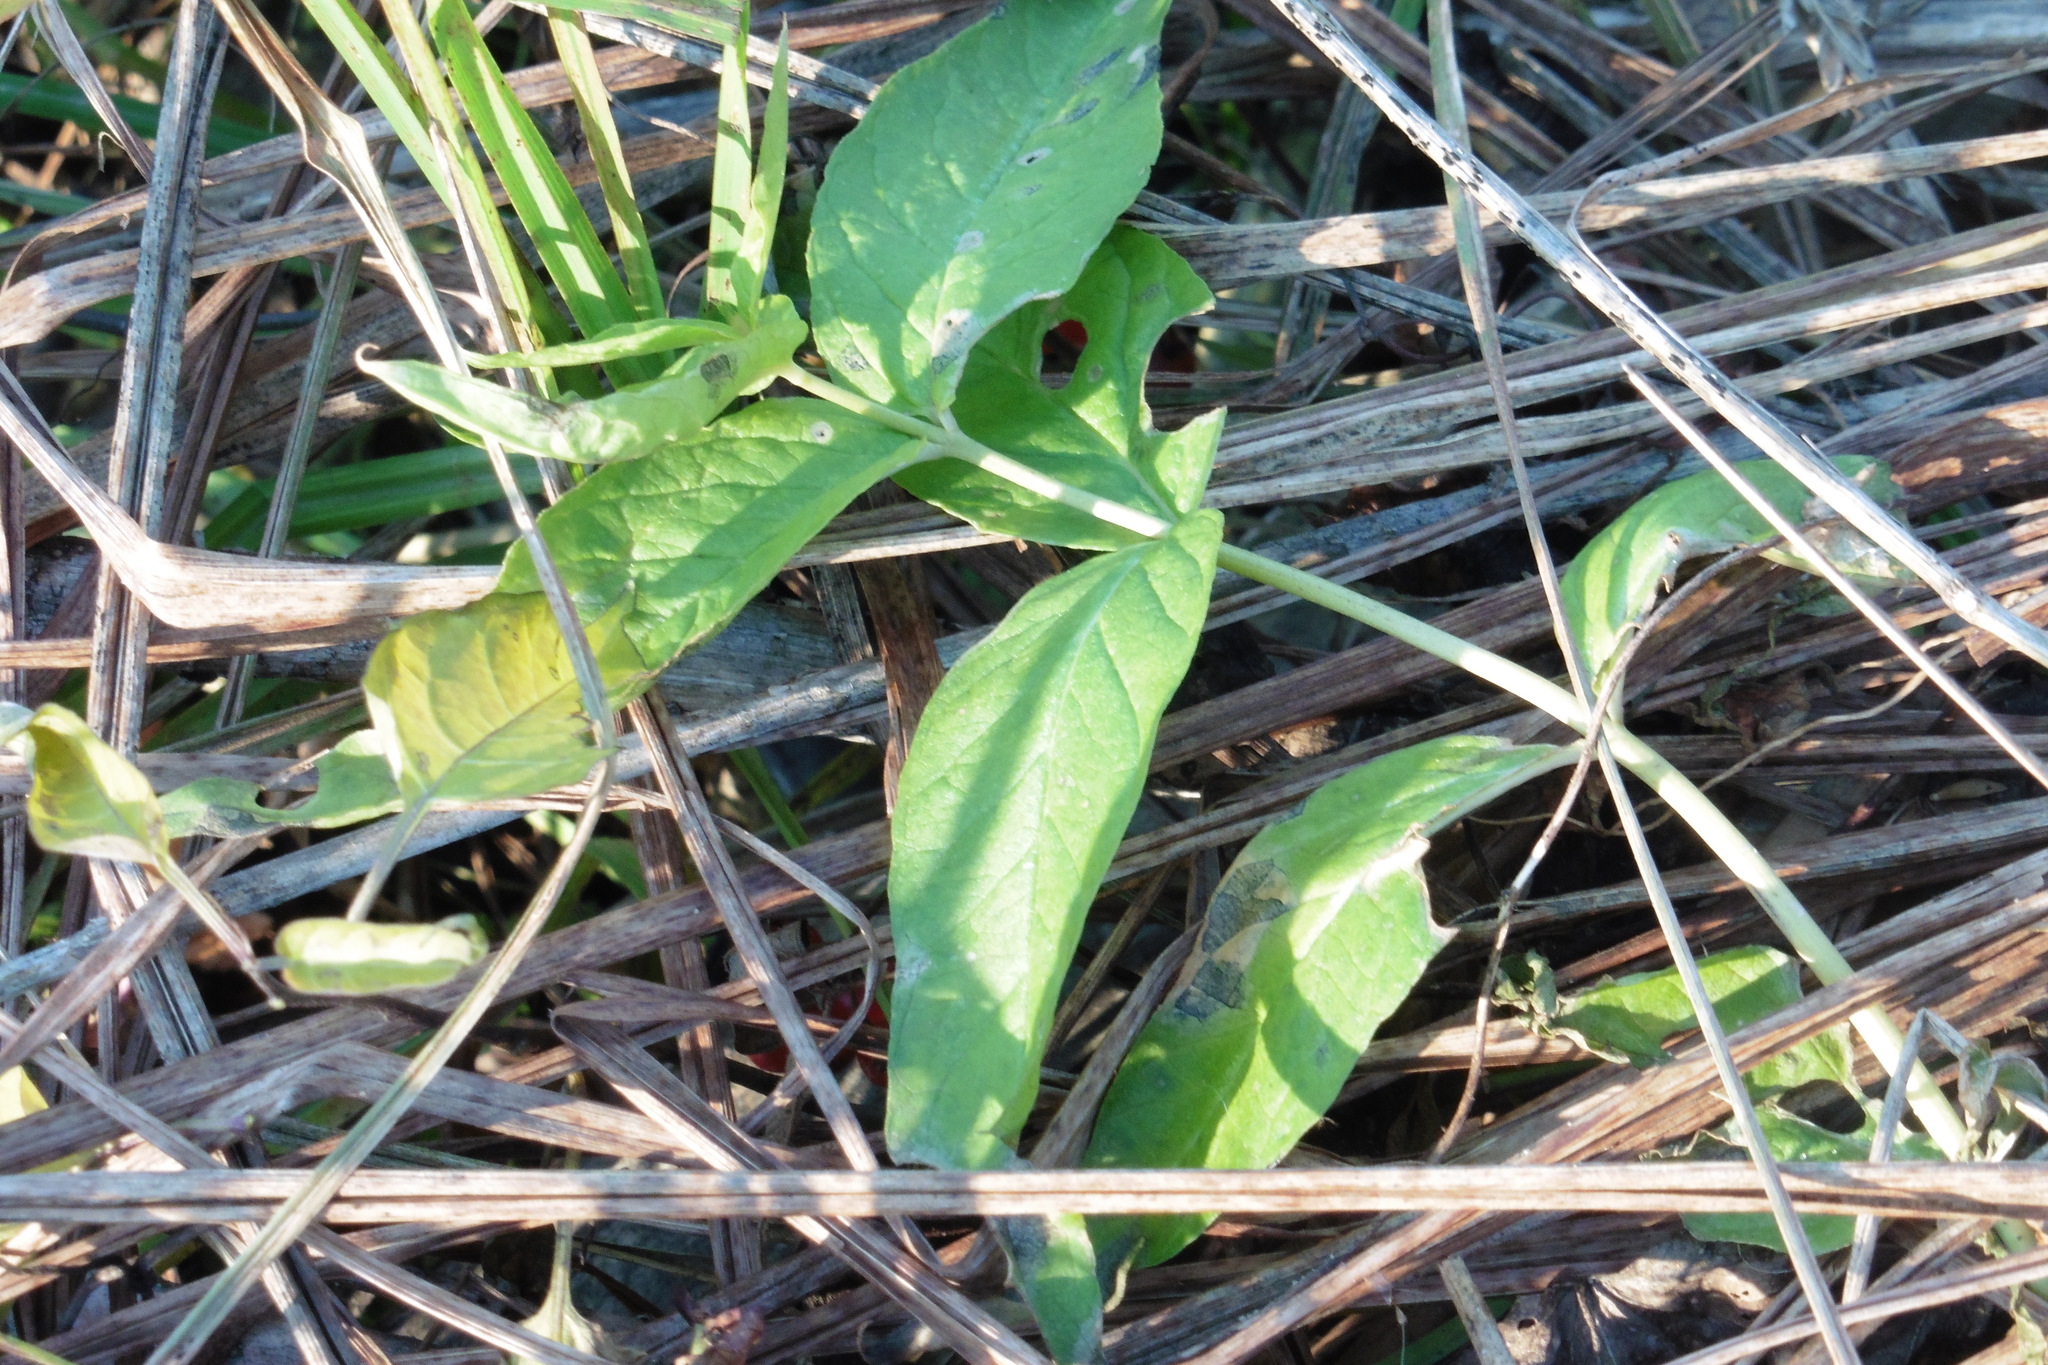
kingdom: Plantae
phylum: Tracheophyta
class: Magnoliopsida
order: Ericales
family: Primulaceae
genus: Lysimachia
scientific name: Lysimachia vulgaris
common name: Yellow loosestrife
